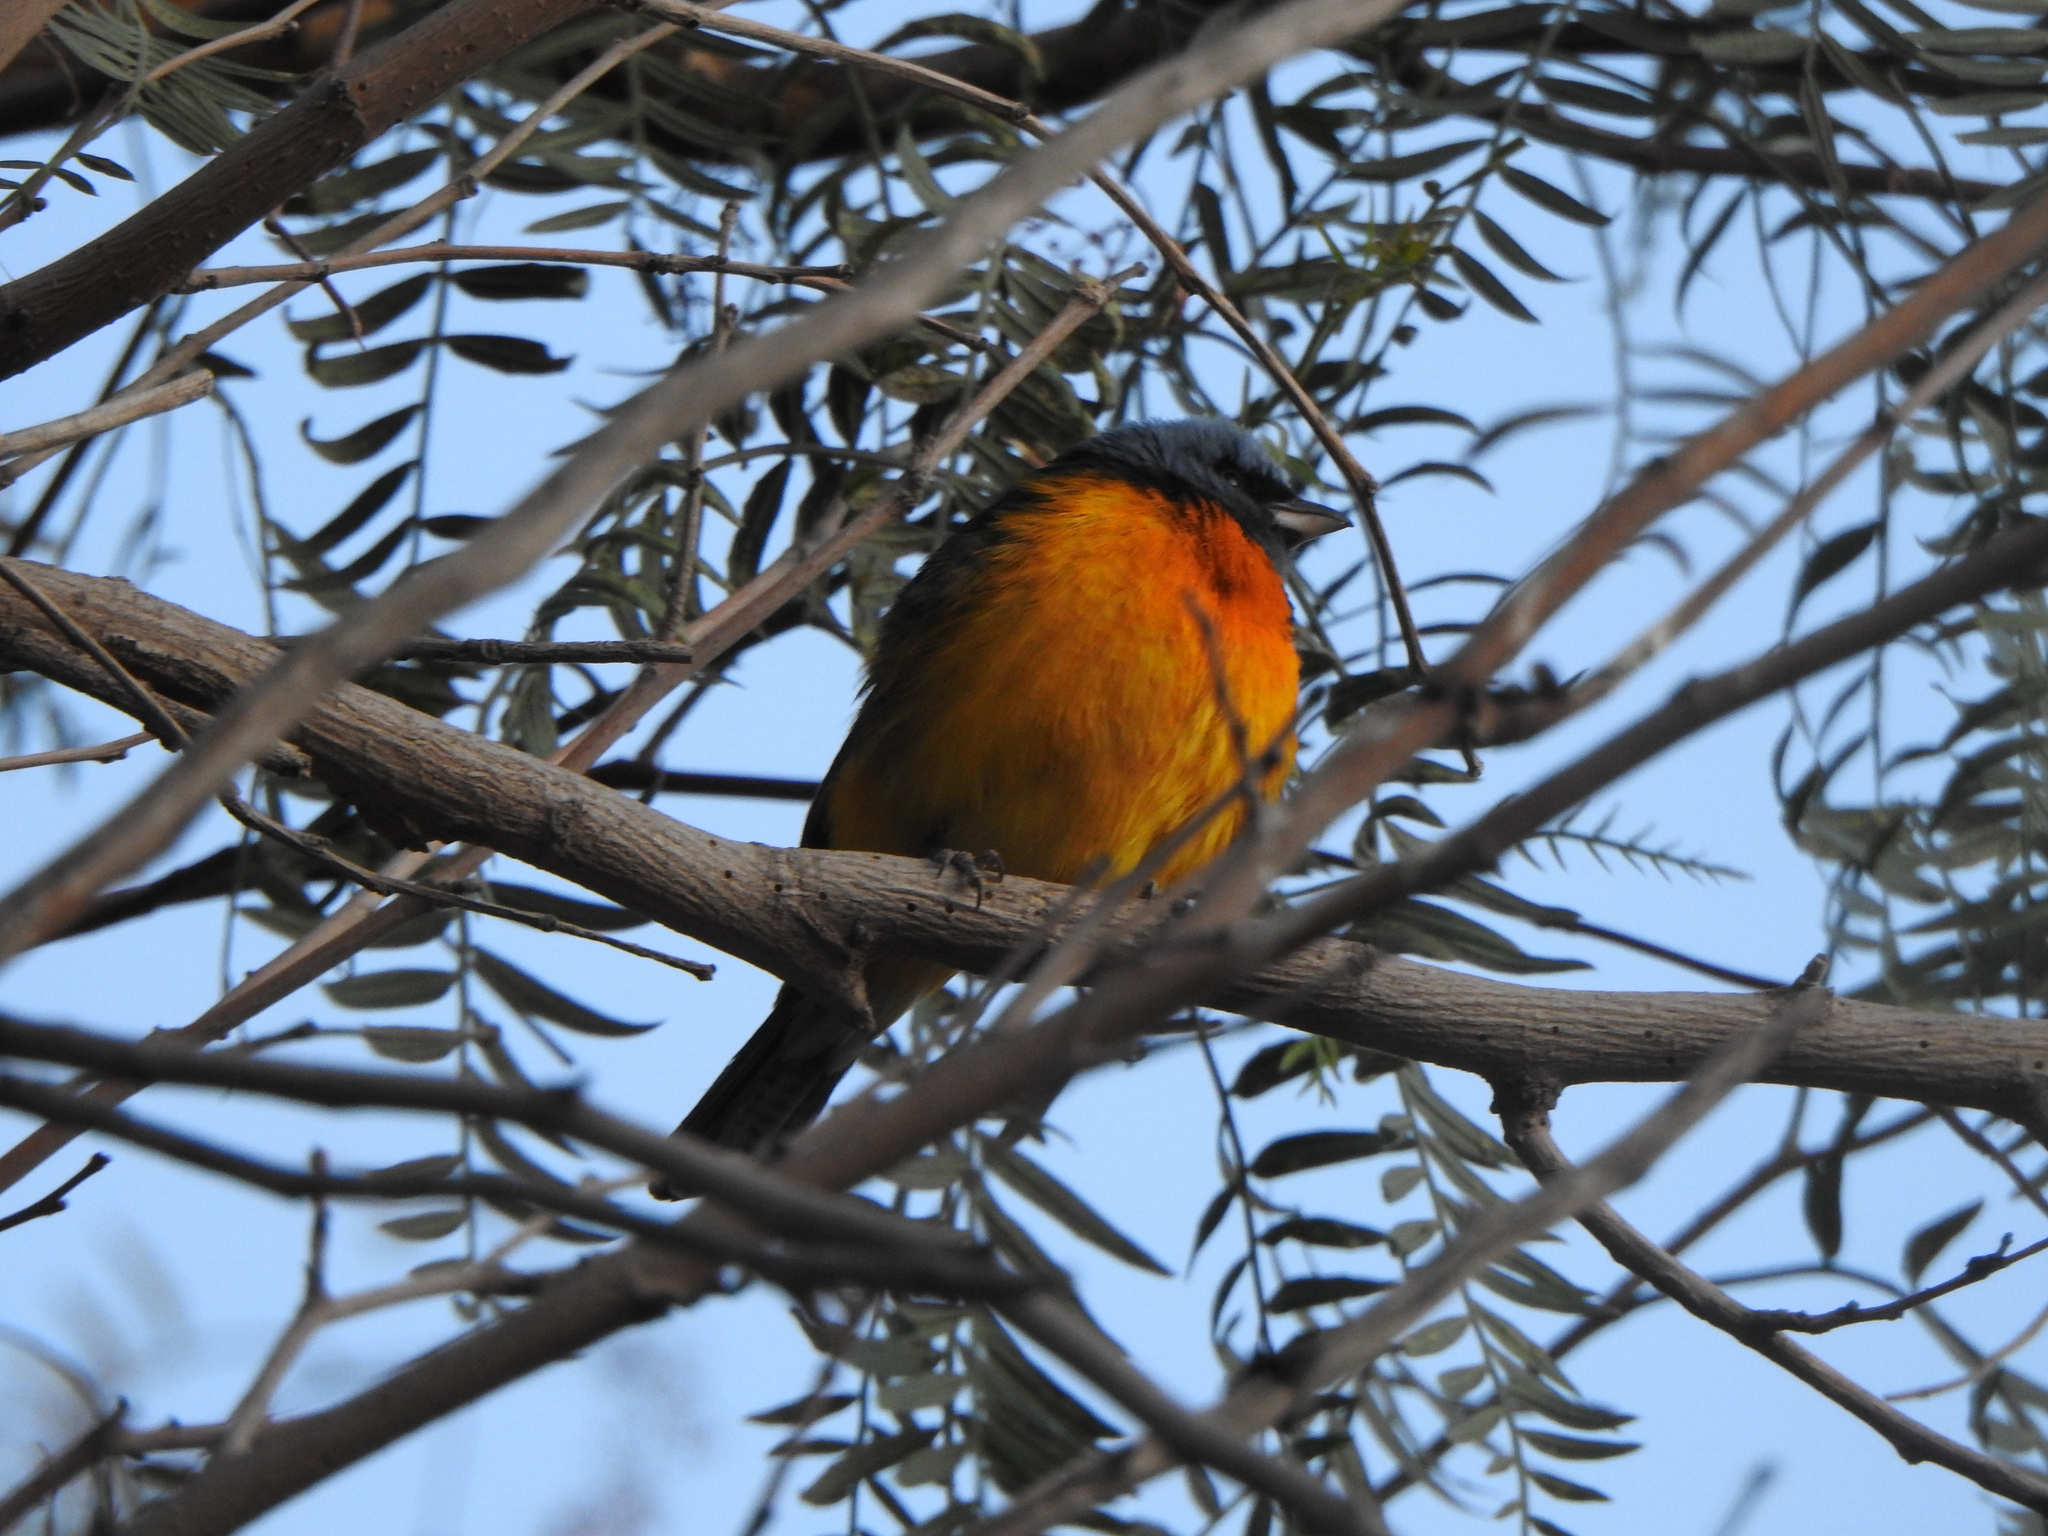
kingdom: Animalia
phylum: Chordata
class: Aves
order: Passeriformes
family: Thraupidae
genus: Rauenia
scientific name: Rauenia bonariensis
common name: Blue-and-yellow tanager
